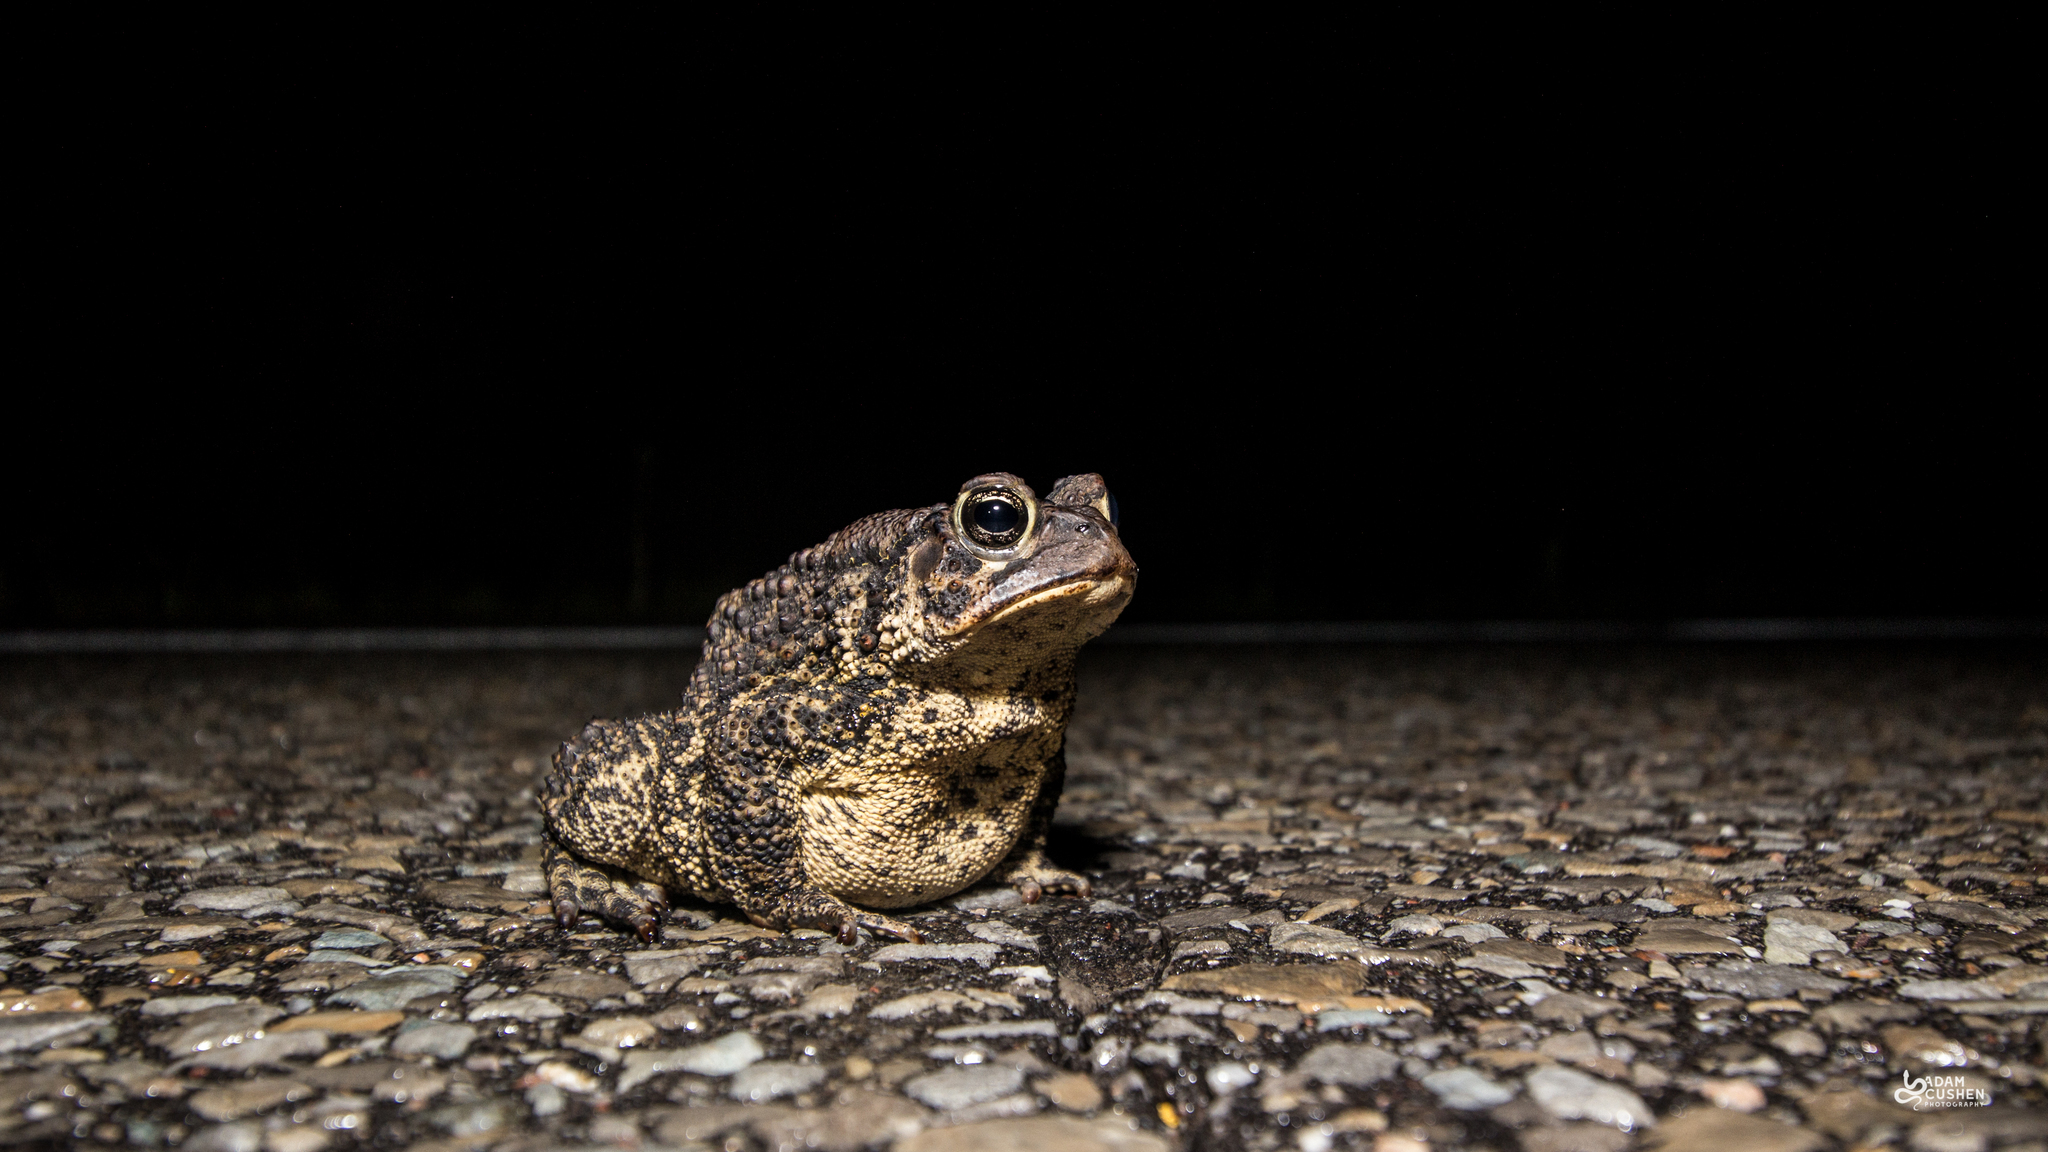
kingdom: Animalia
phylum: Chordata
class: Amphibia
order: Anura
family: Bufonidae
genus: Anaxyrus
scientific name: Anaxyrus americanus
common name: American toad
